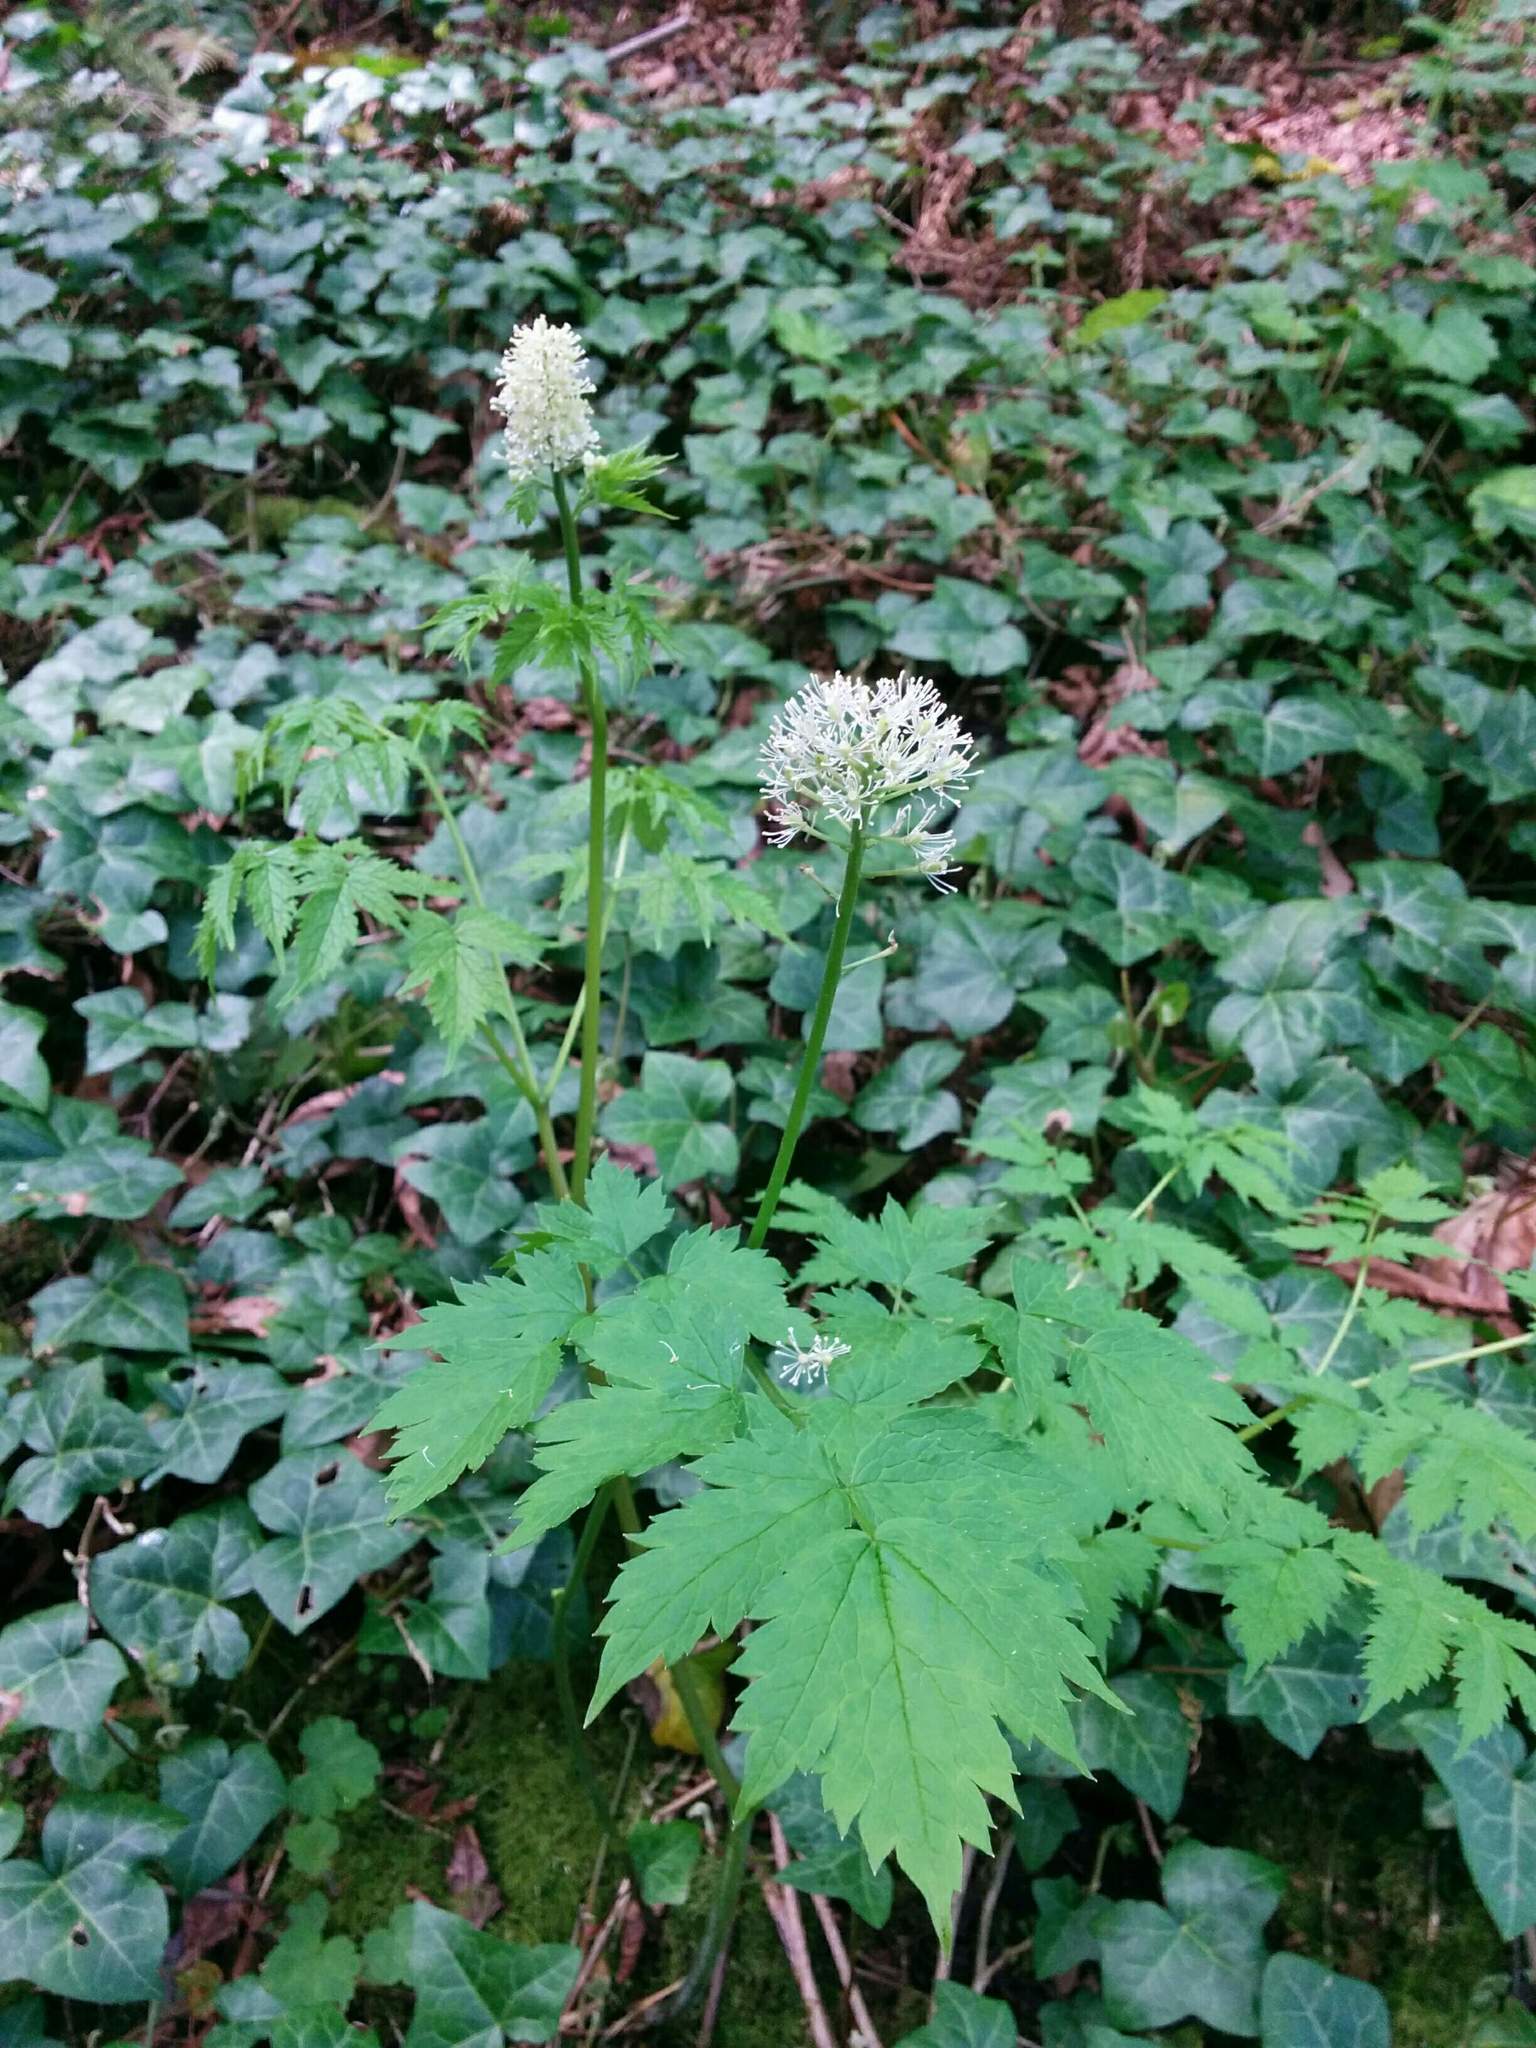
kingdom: Plantae
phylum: Tracheophyta
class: Magnoliopsida
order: Ranunculales
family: Ranunculaceae
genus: Actaea
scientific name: Actaea rubra
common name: Red baneberry
